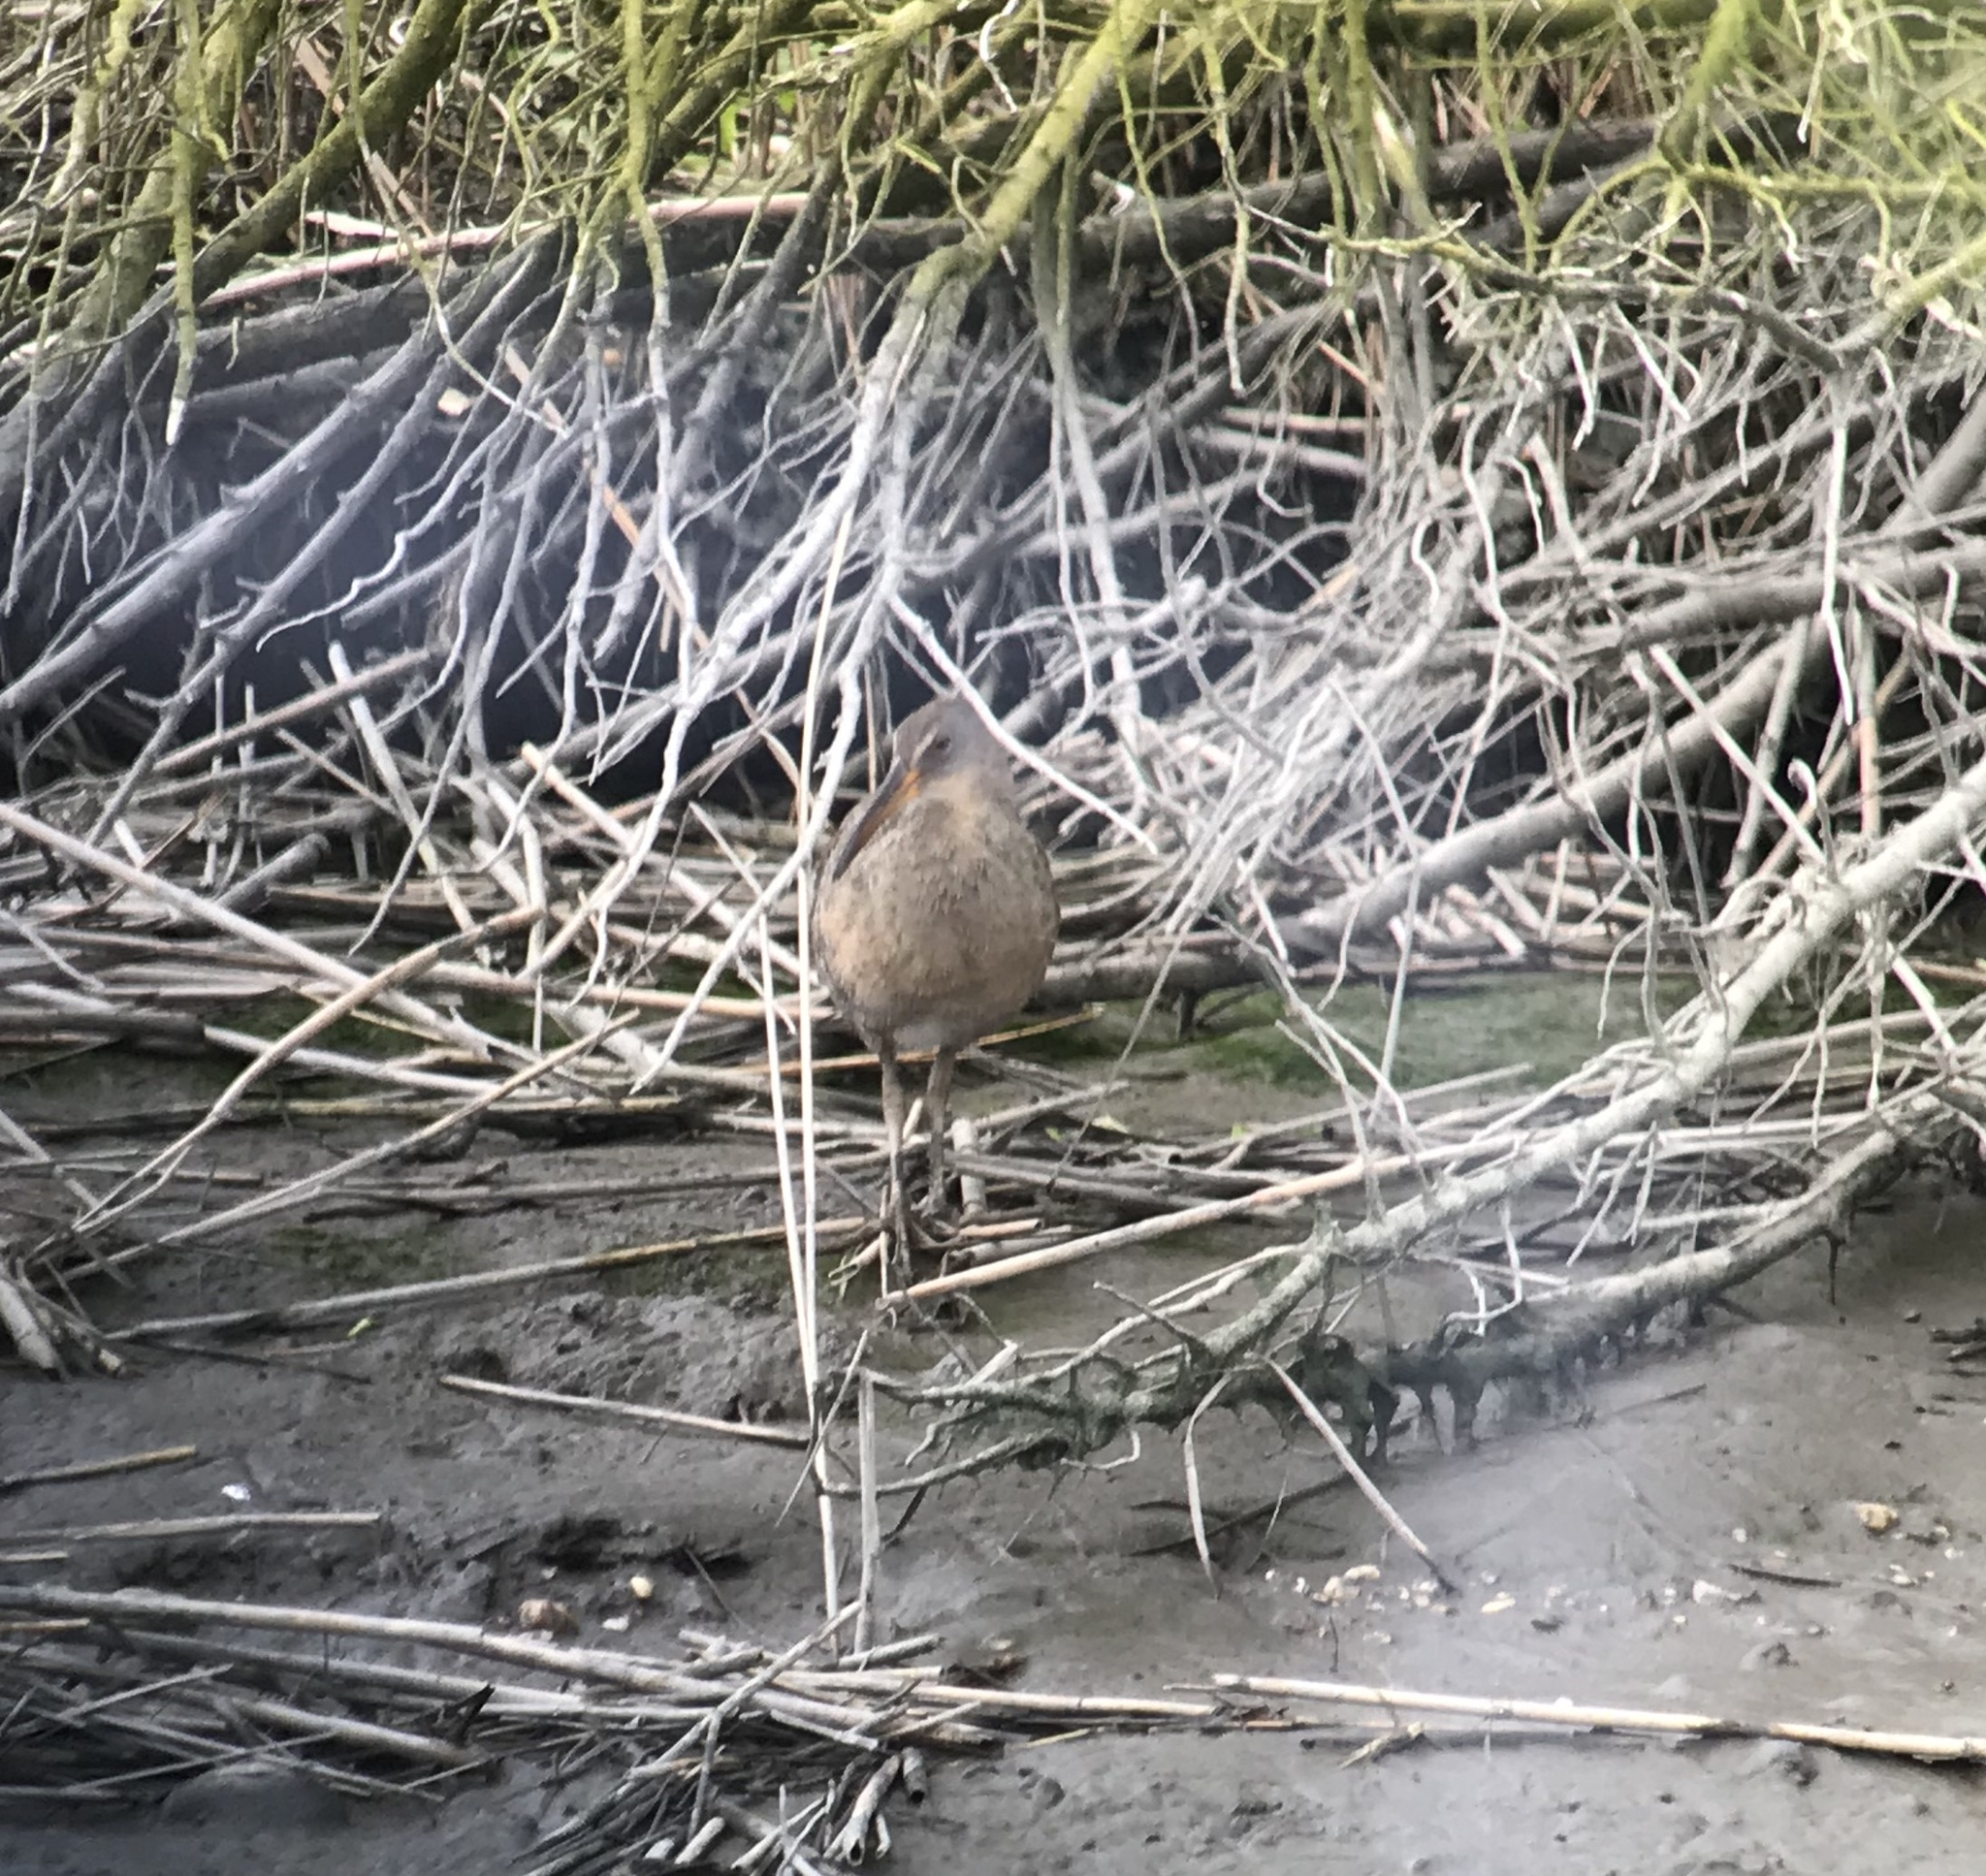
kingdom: Animalia
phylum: Chordata
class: Aves
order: Gruiformes
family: Rallidae
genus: Rallus
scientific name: Rallus crepitans
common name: Clapper rail
